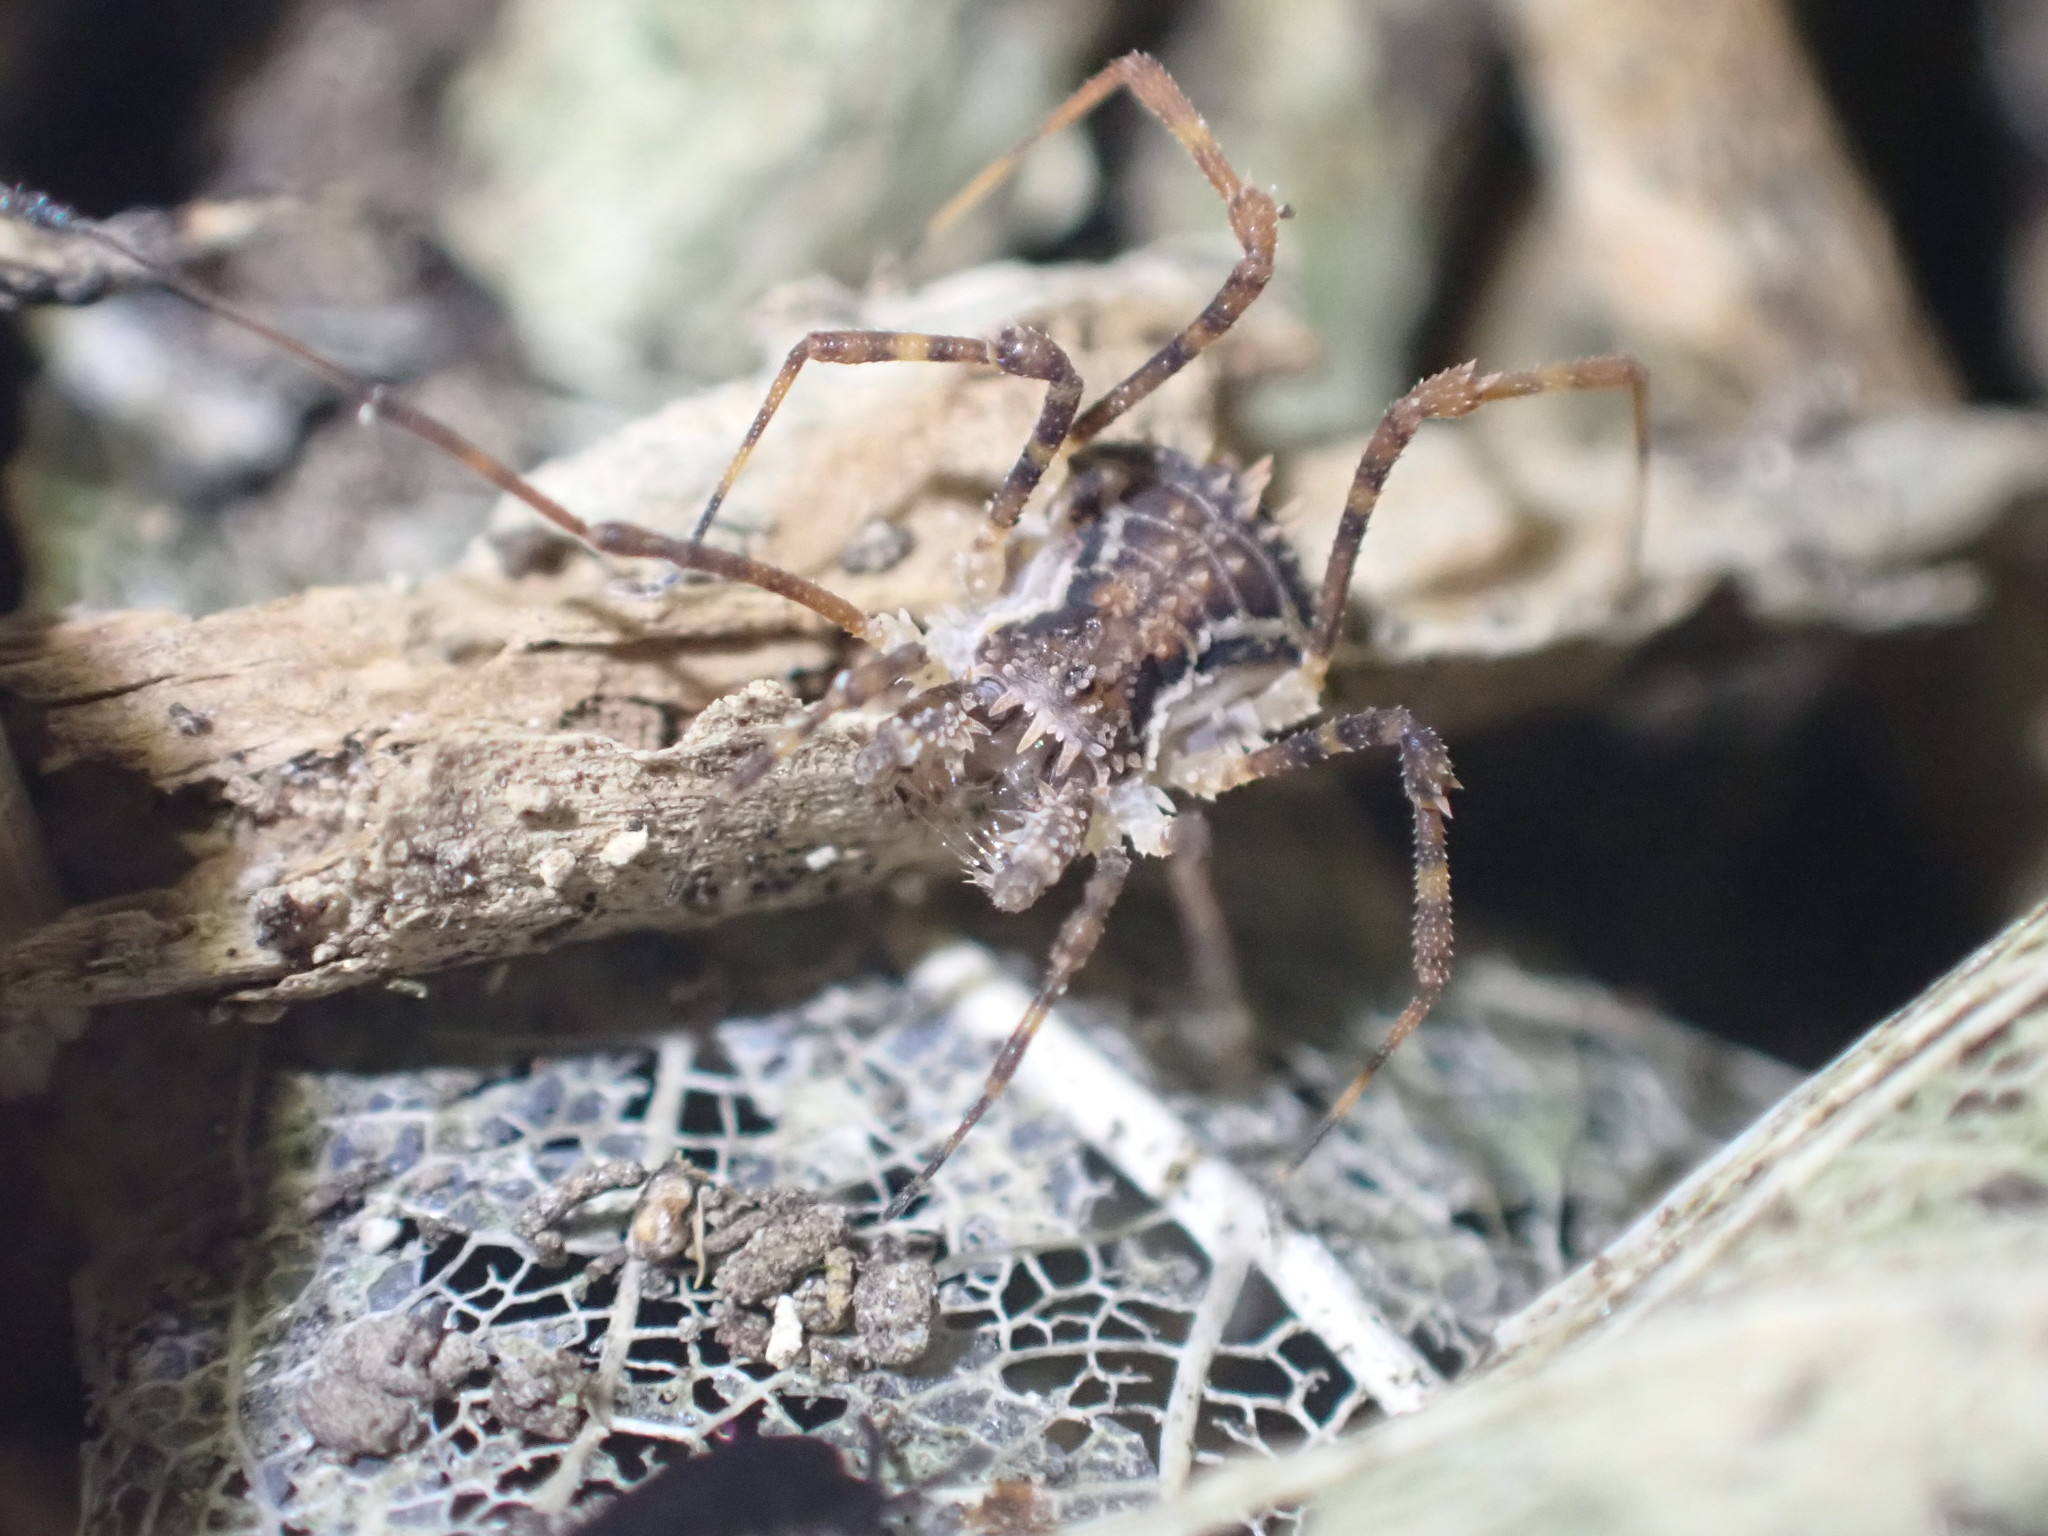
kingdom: Animalia
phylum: Arthropoda
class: Arachnida
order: Opiliones
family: Triaenonychidae
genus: Algidia
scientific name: Algidia nigriflava
